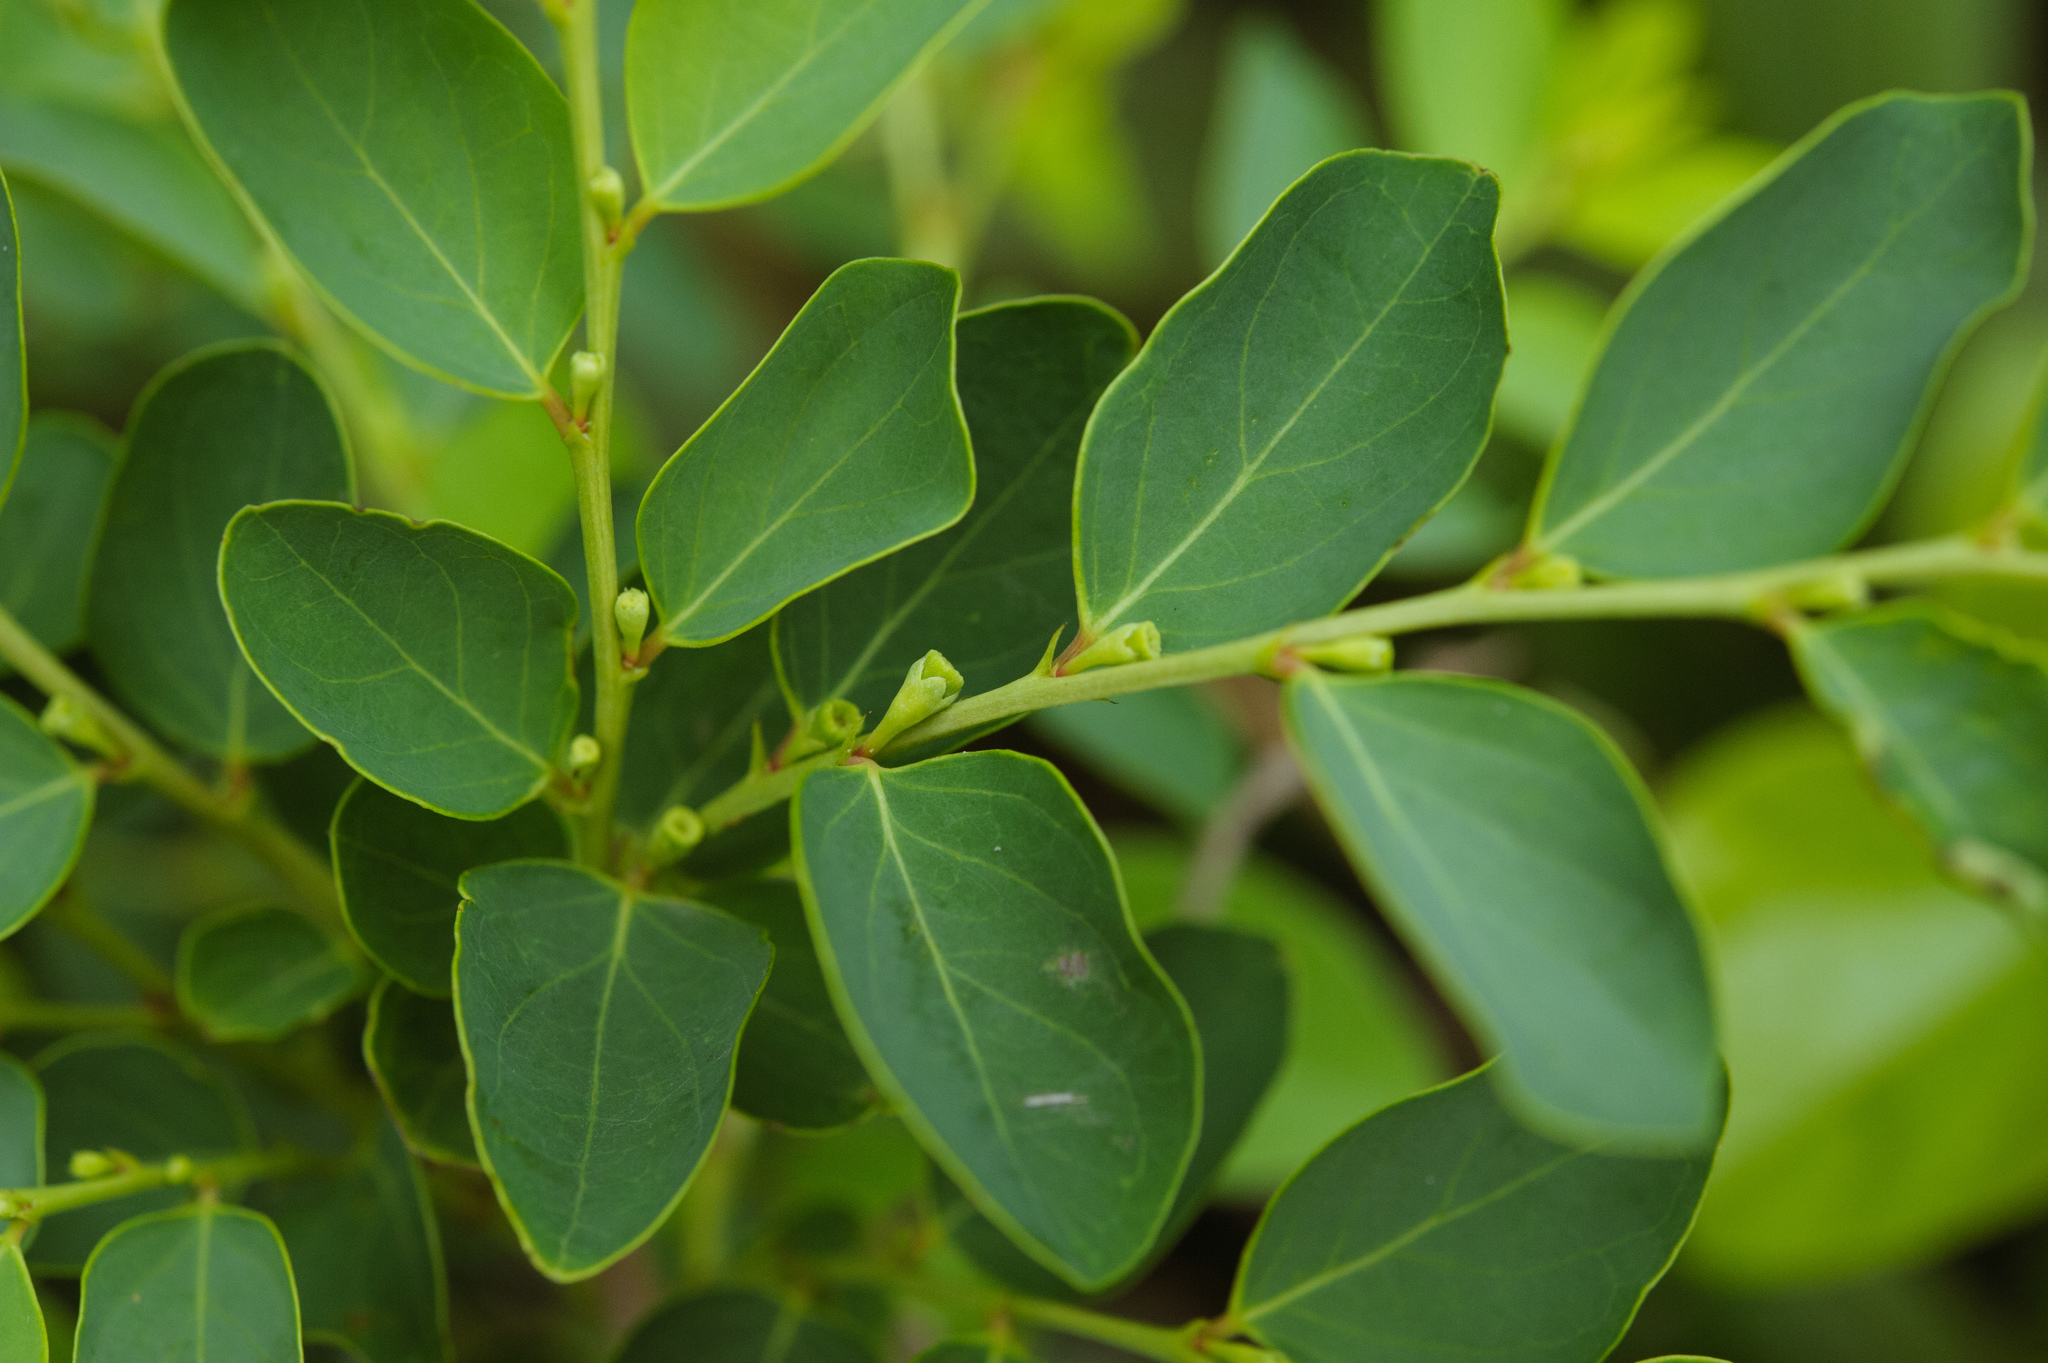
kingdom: Plantae
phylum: Tracheophyta
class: Magnoliopsida
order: Malpighiales
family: Phyllanthaceae
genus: Breynia
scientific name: Breynia vitis-idaea
